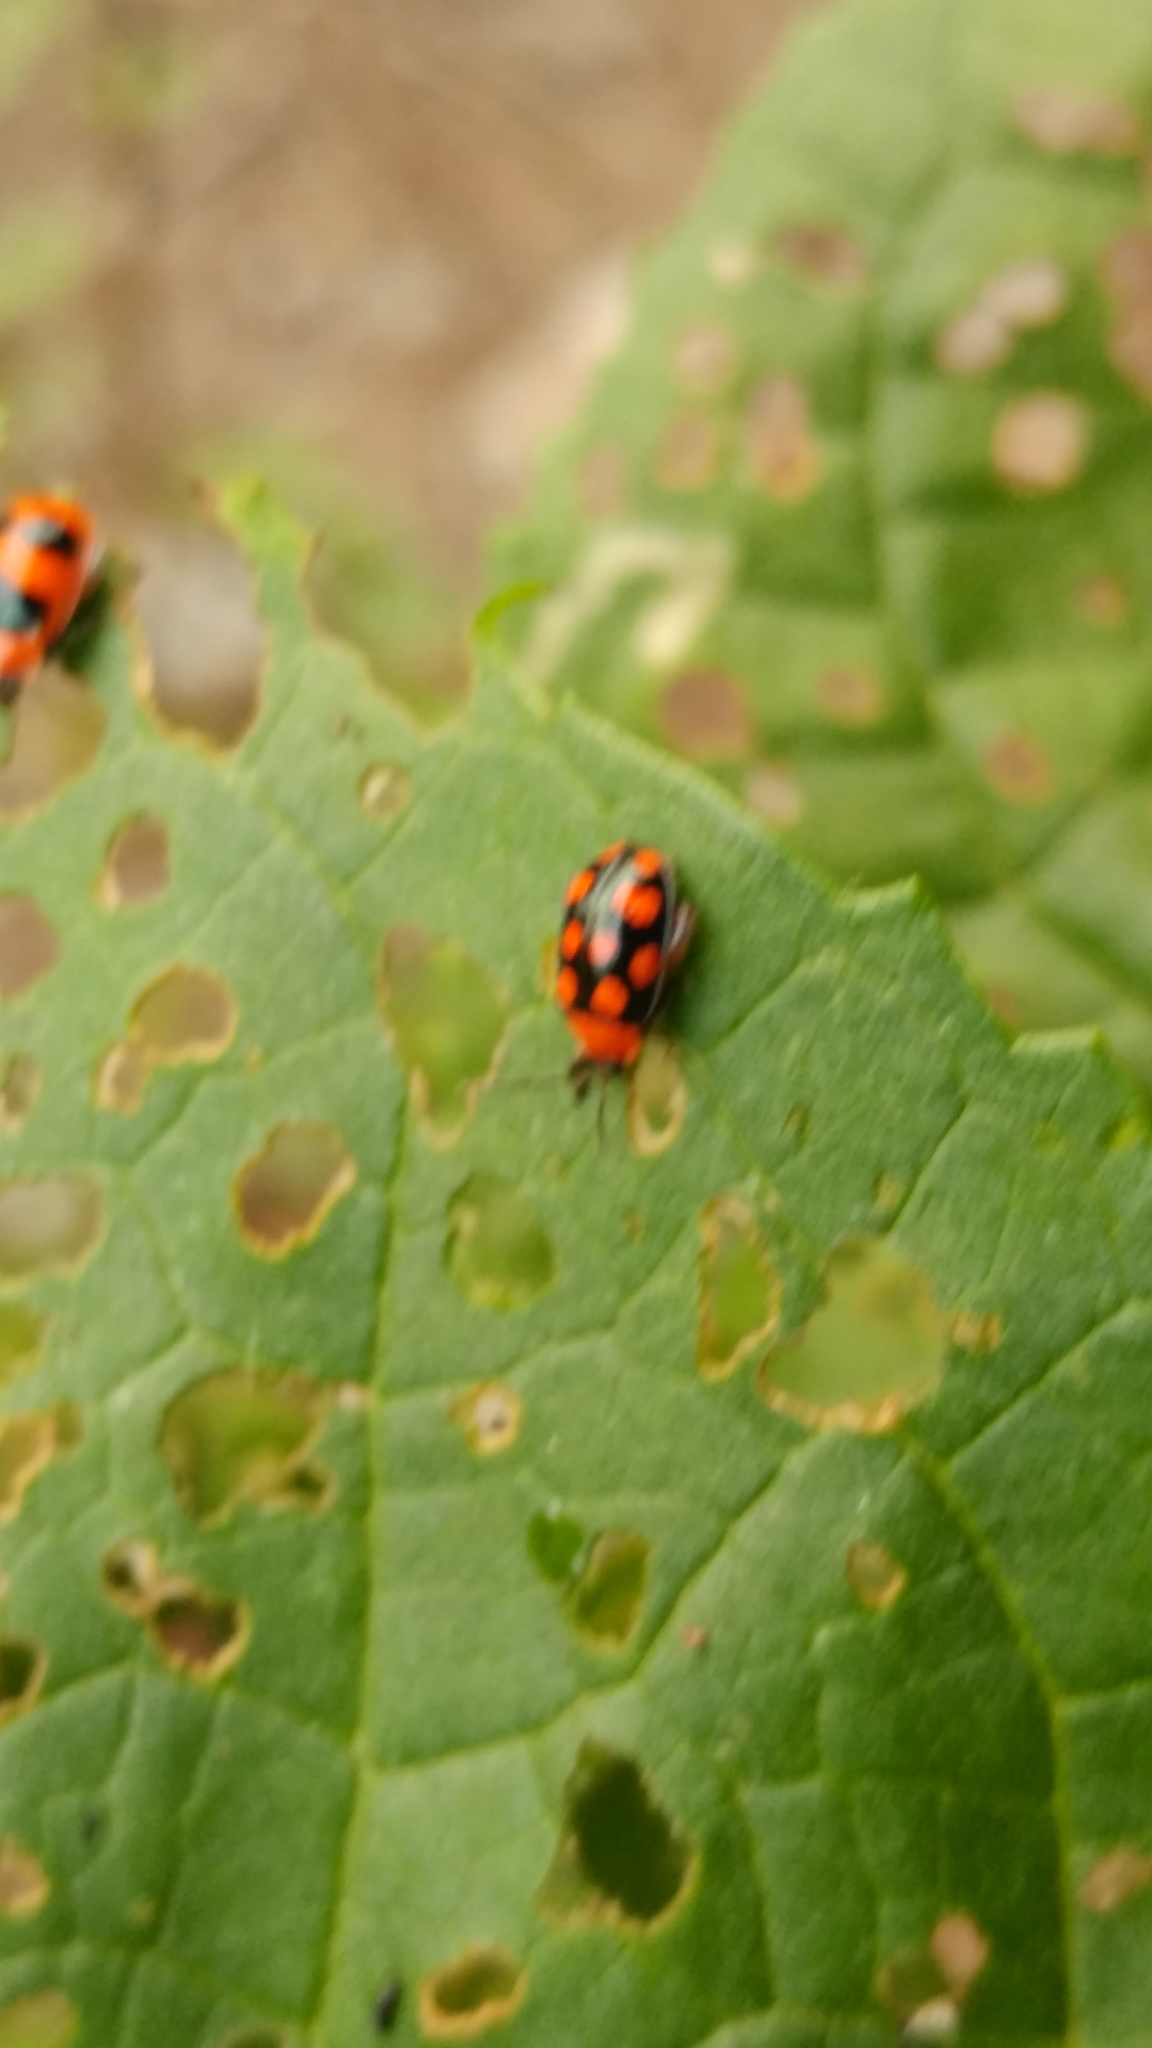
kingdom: Animalia
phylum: Arthropoda
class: Insecta
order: Coleoptera
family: Chrysomelidae
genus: Alagoasa
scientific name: Alagoasa
